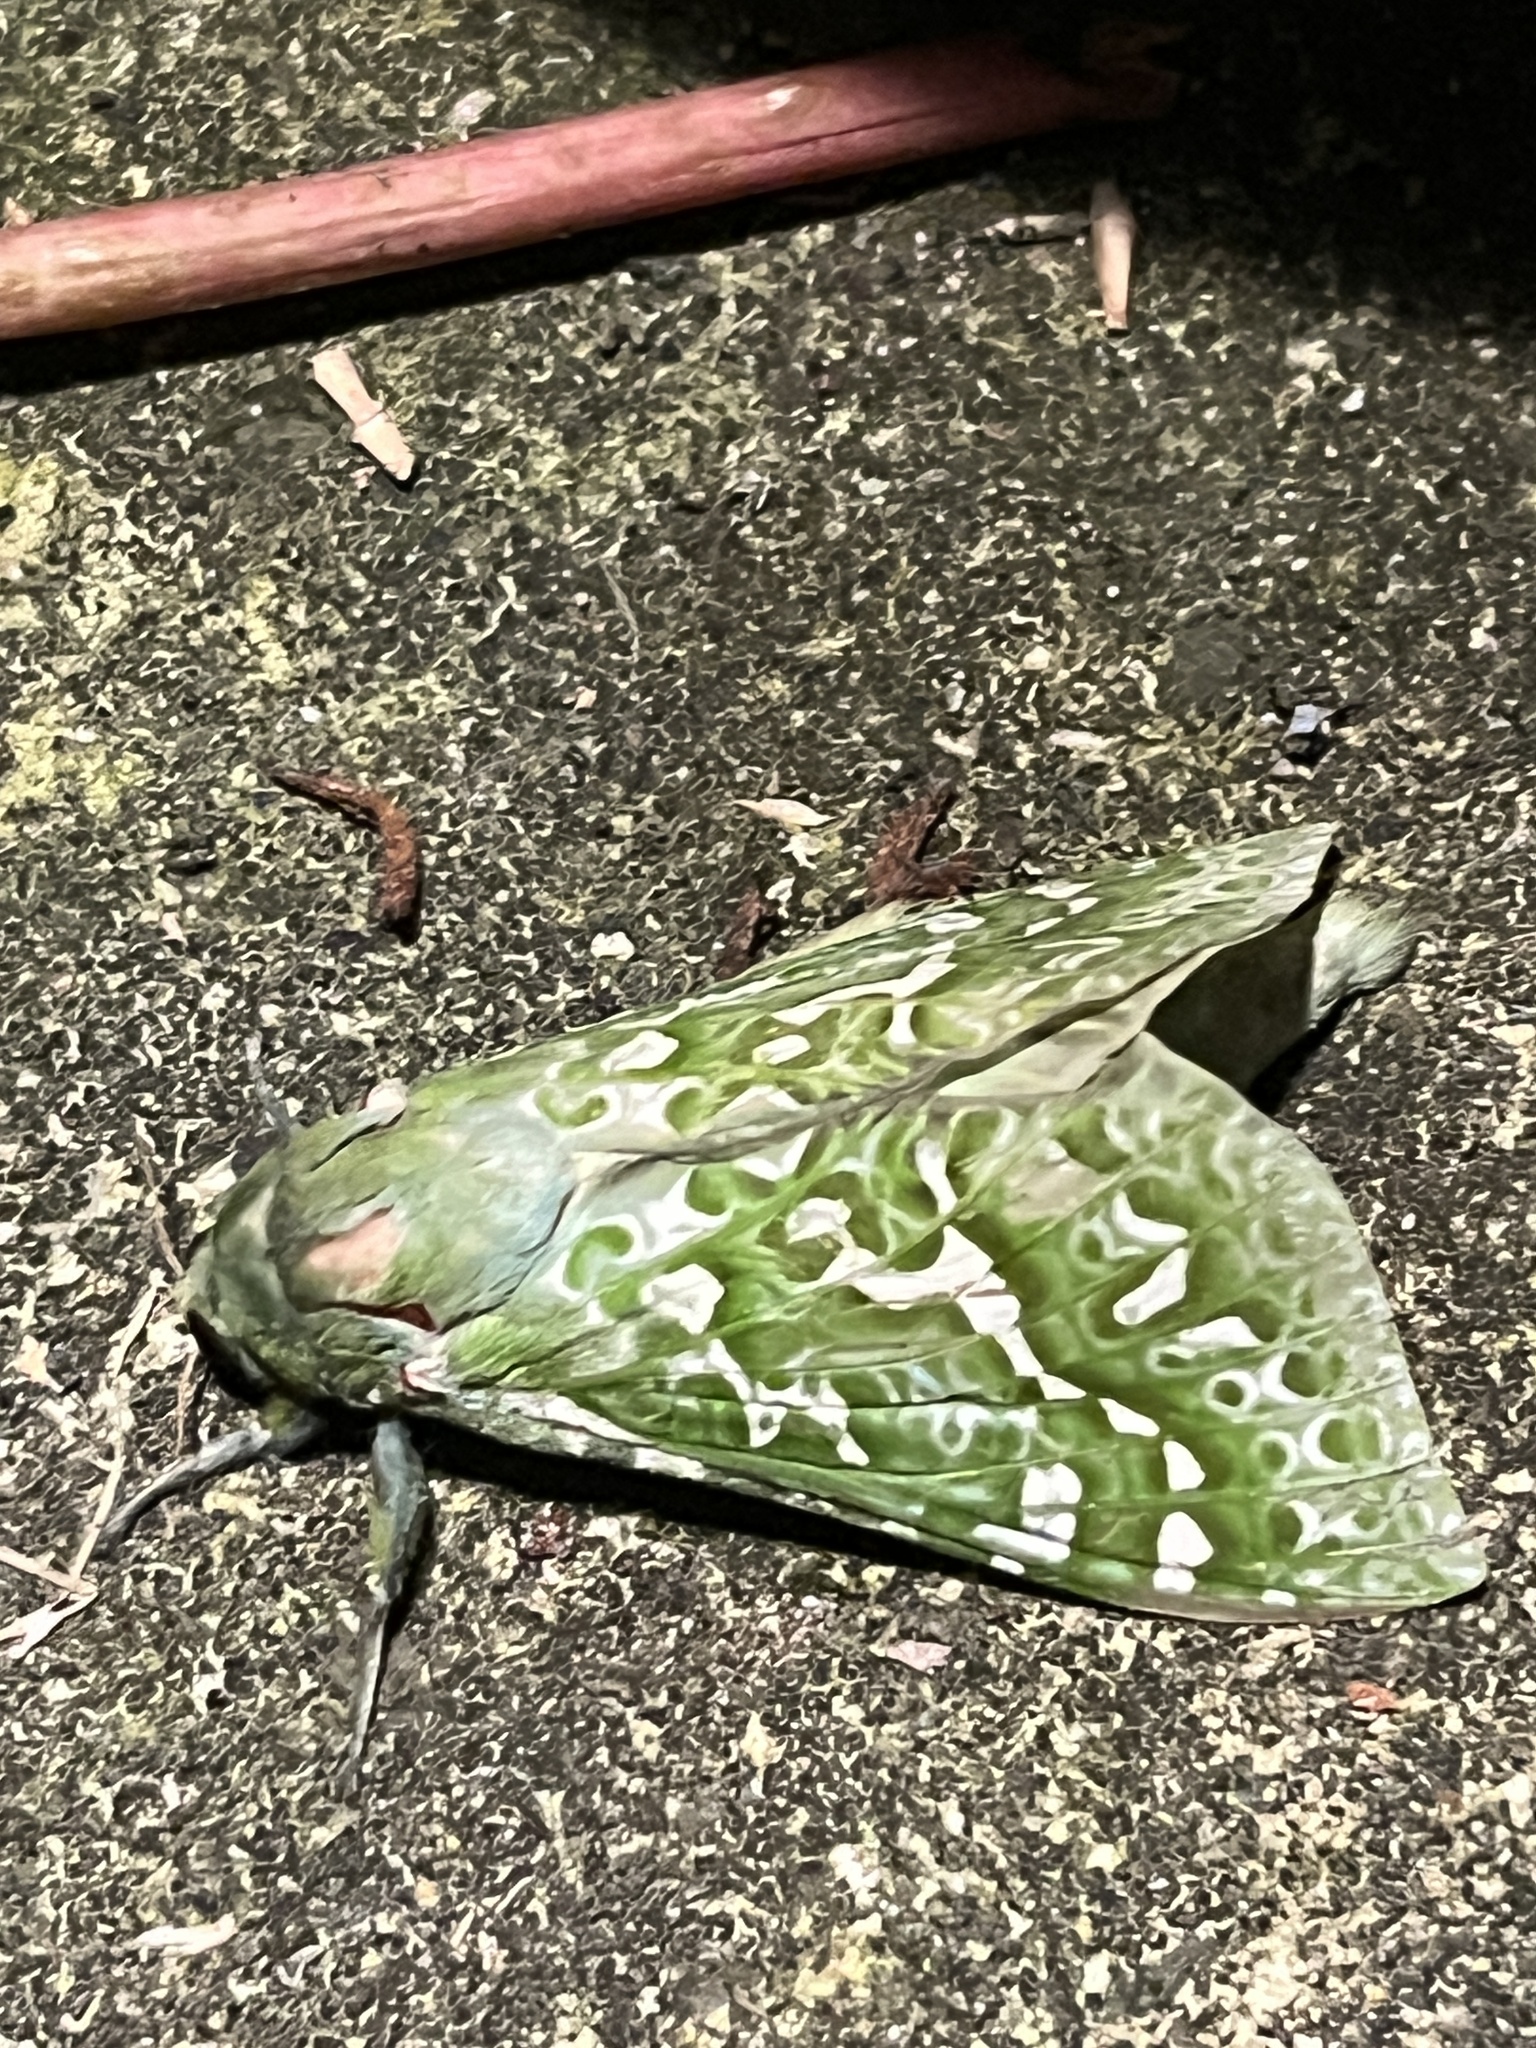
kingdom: Animalia
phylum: Arthropoda
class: Insecta
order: Lepidoptera
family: Hepialidae
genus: Aenetus
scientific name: Aenetus virescens
